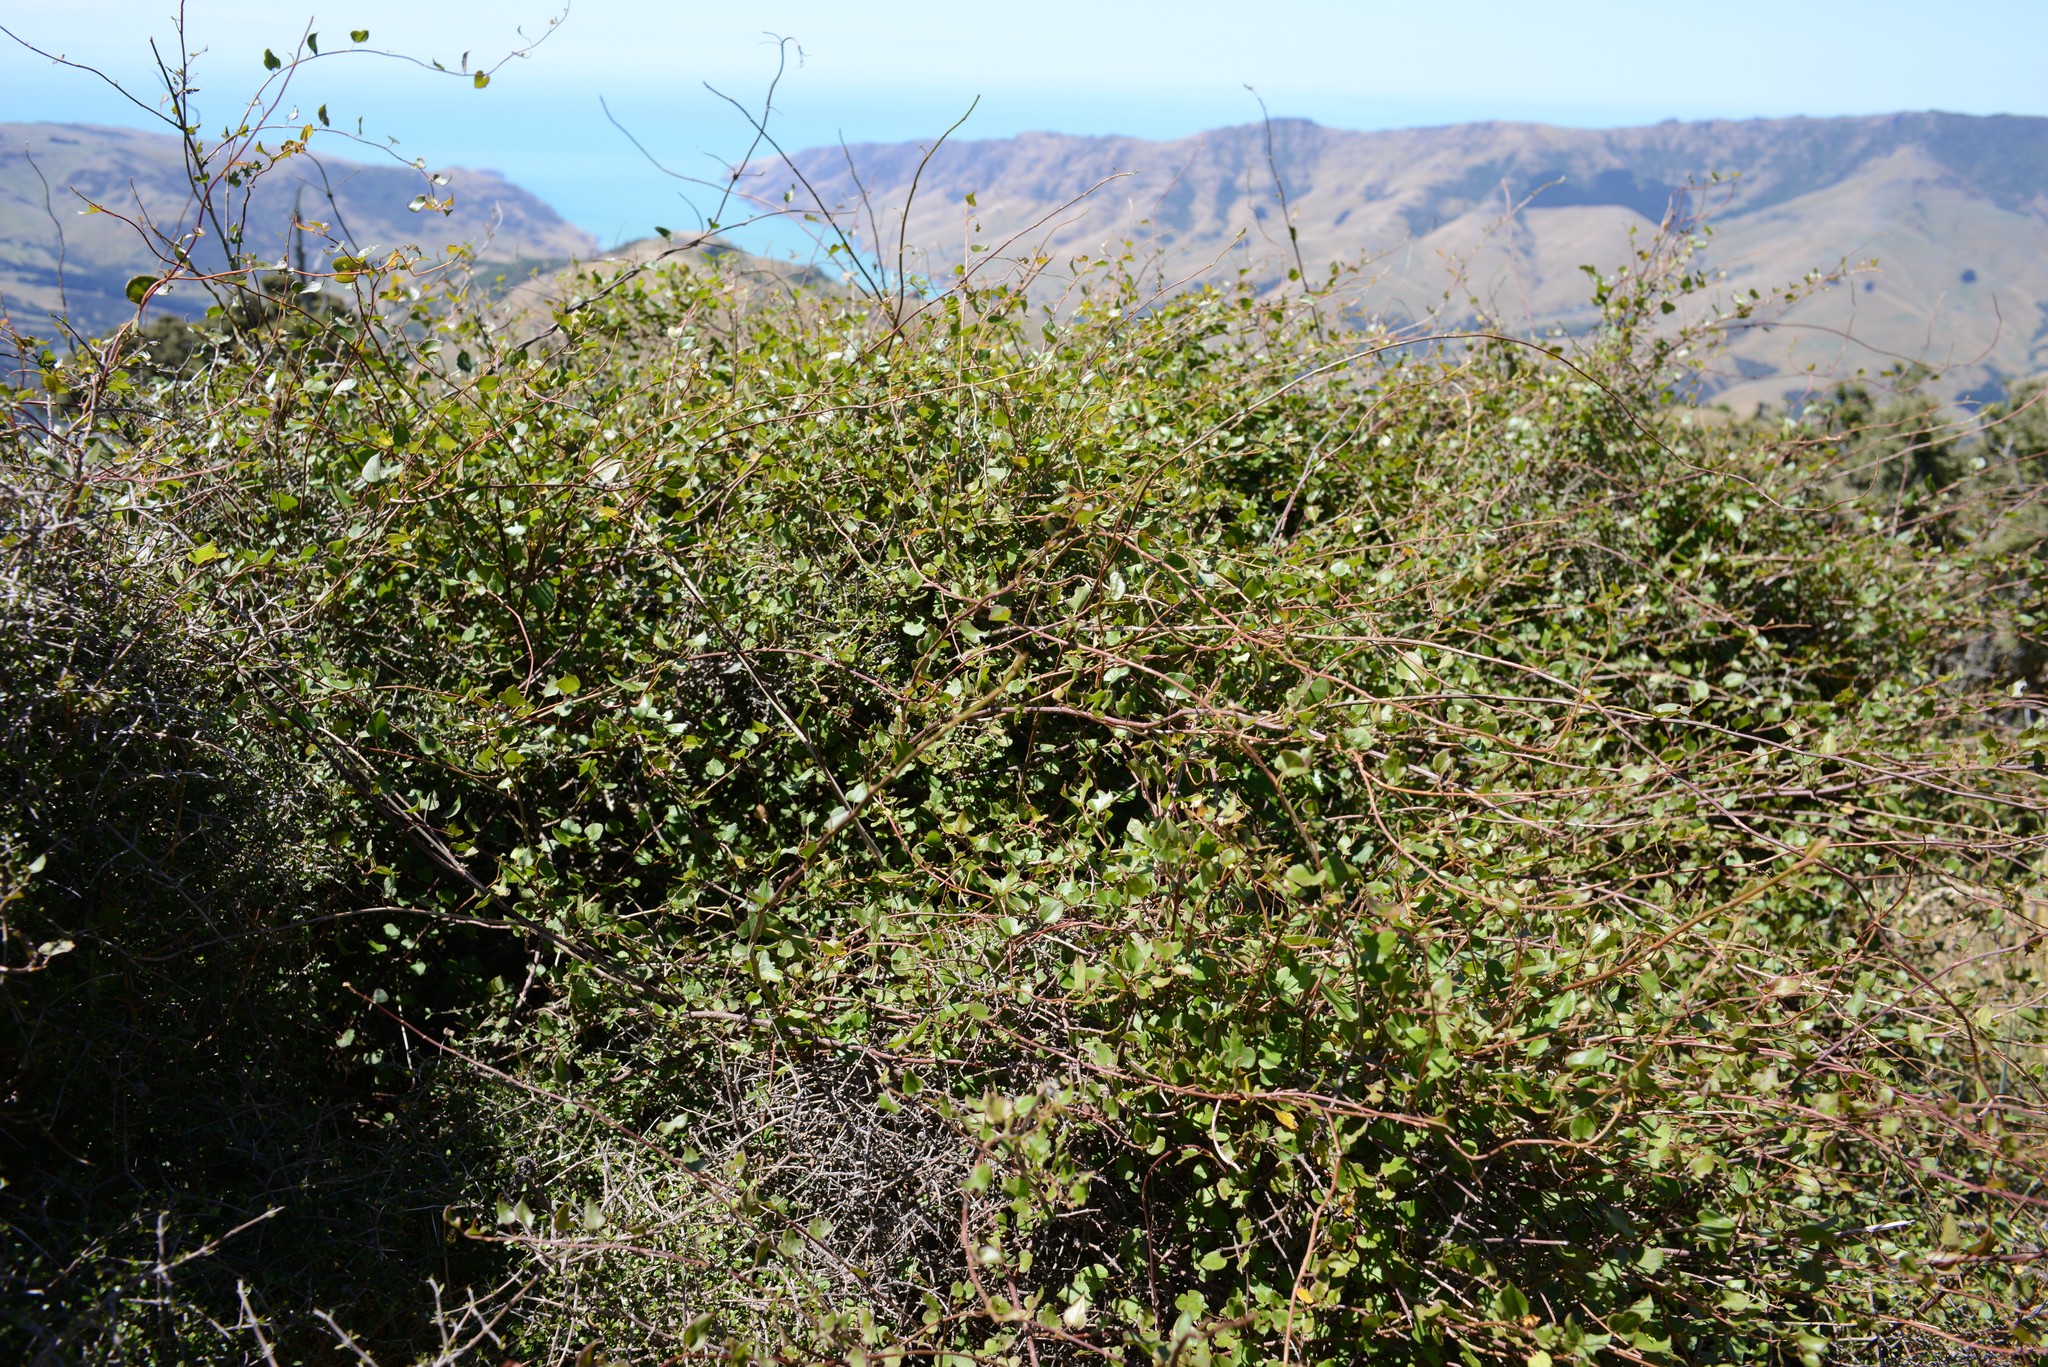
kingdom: Plantae
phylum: Tracheophyta
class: Magnoliopsida
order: Caryophyllales
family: Polygonaceae
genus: Muehlenbeckia
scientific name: Muehlenbeckia australis
